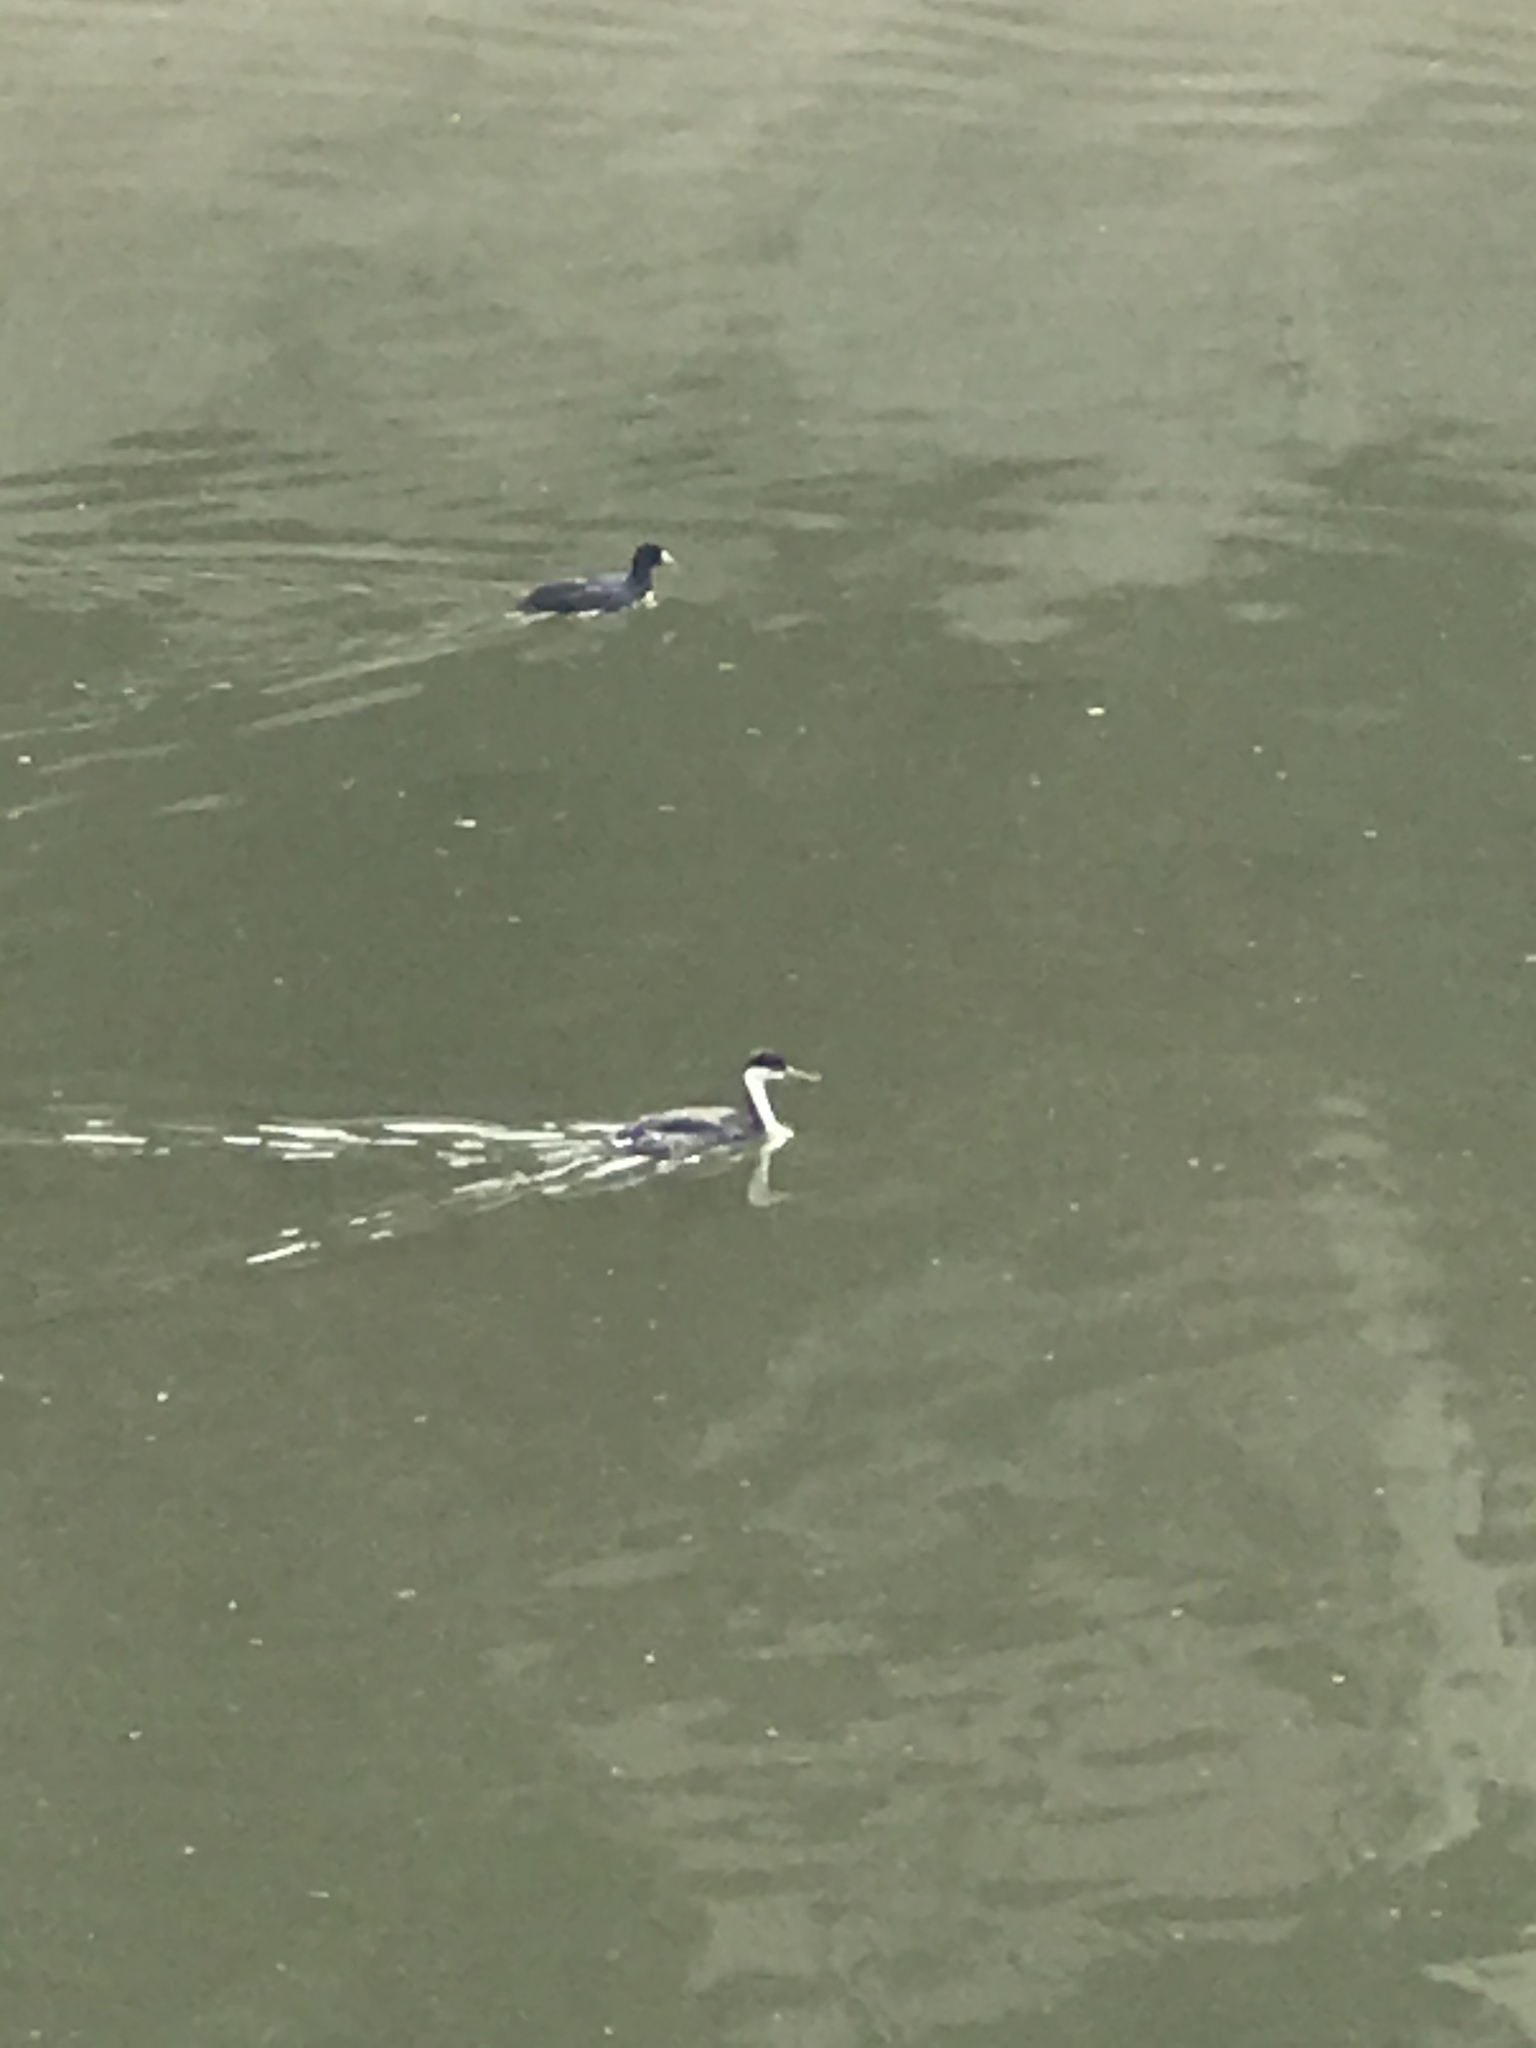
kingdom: Animalia
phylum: Chordata
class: Aves
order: Podicipediformes
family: Podicipedidae
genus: Aechmophorus
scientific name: Aechmophorus occidentalis
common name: Western grebe
